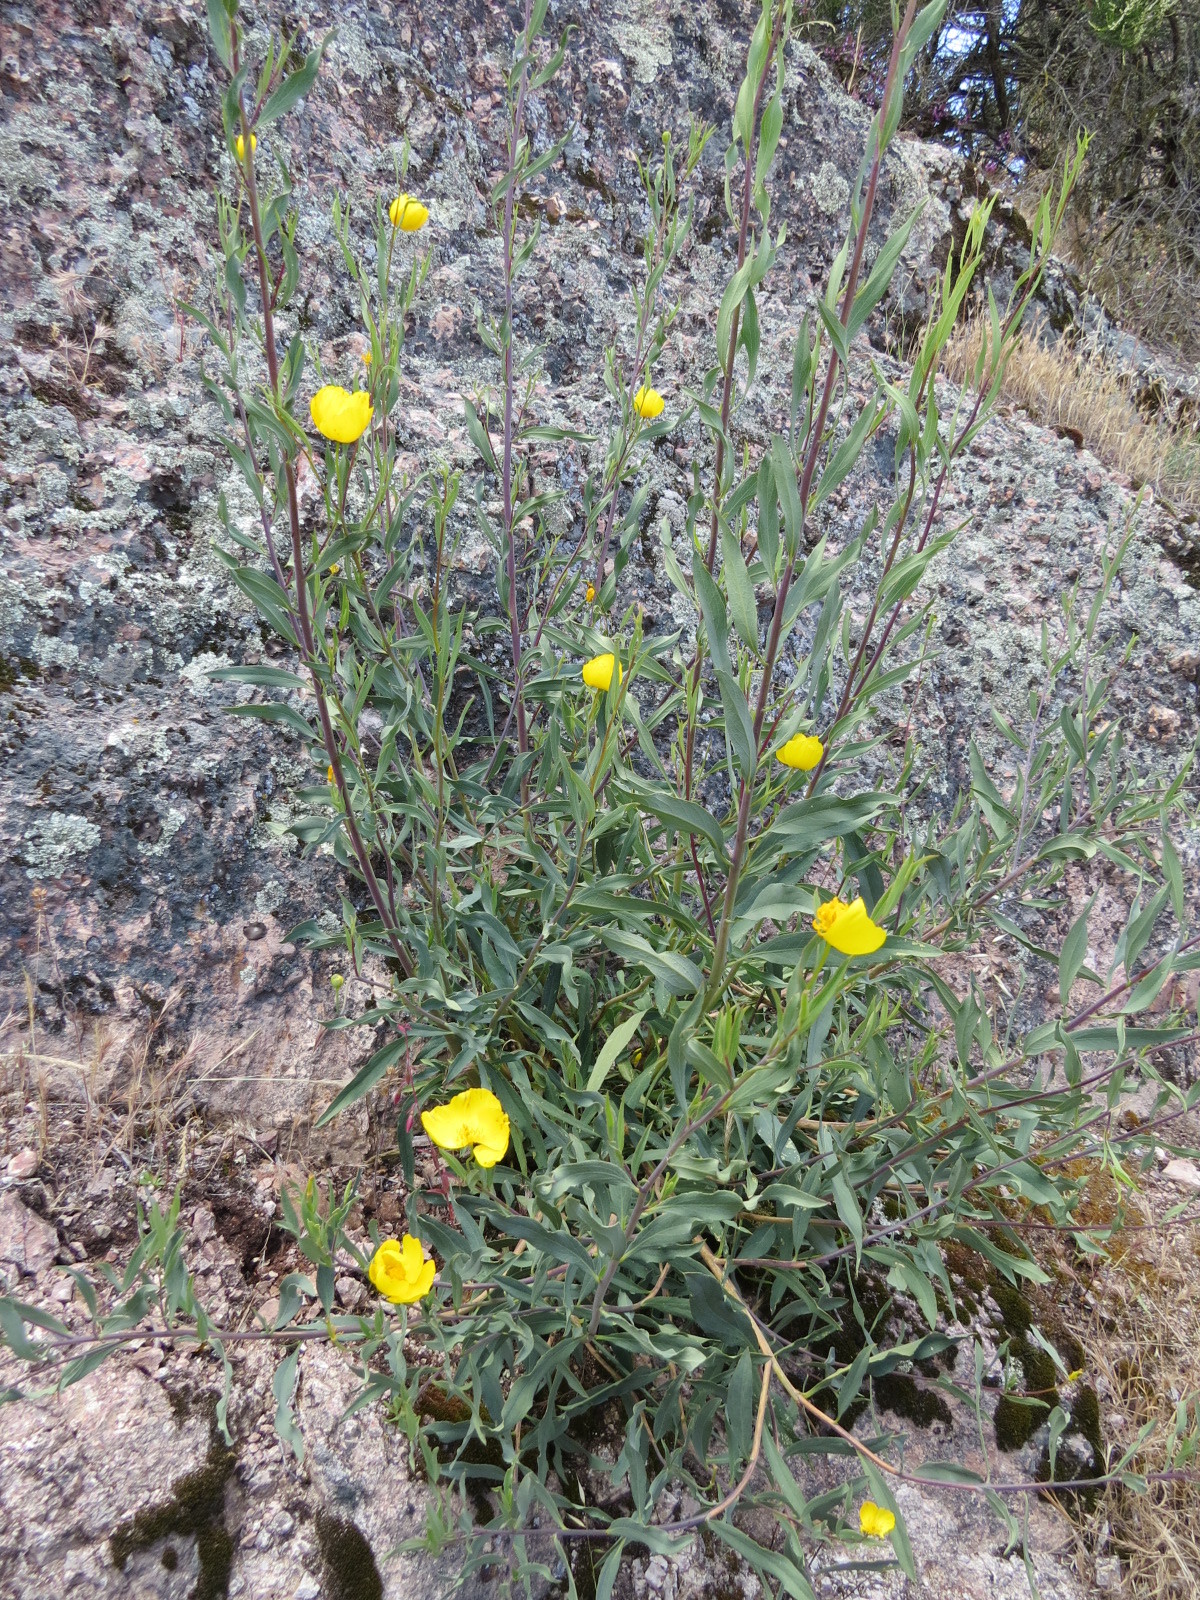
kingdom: Plantae
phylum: Tracheophyta
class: Magnoliopsida
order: Ranunculales
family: Papaveraceae
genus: Dendromecon
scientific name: Dendromecon rigida
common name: Tree poppy
